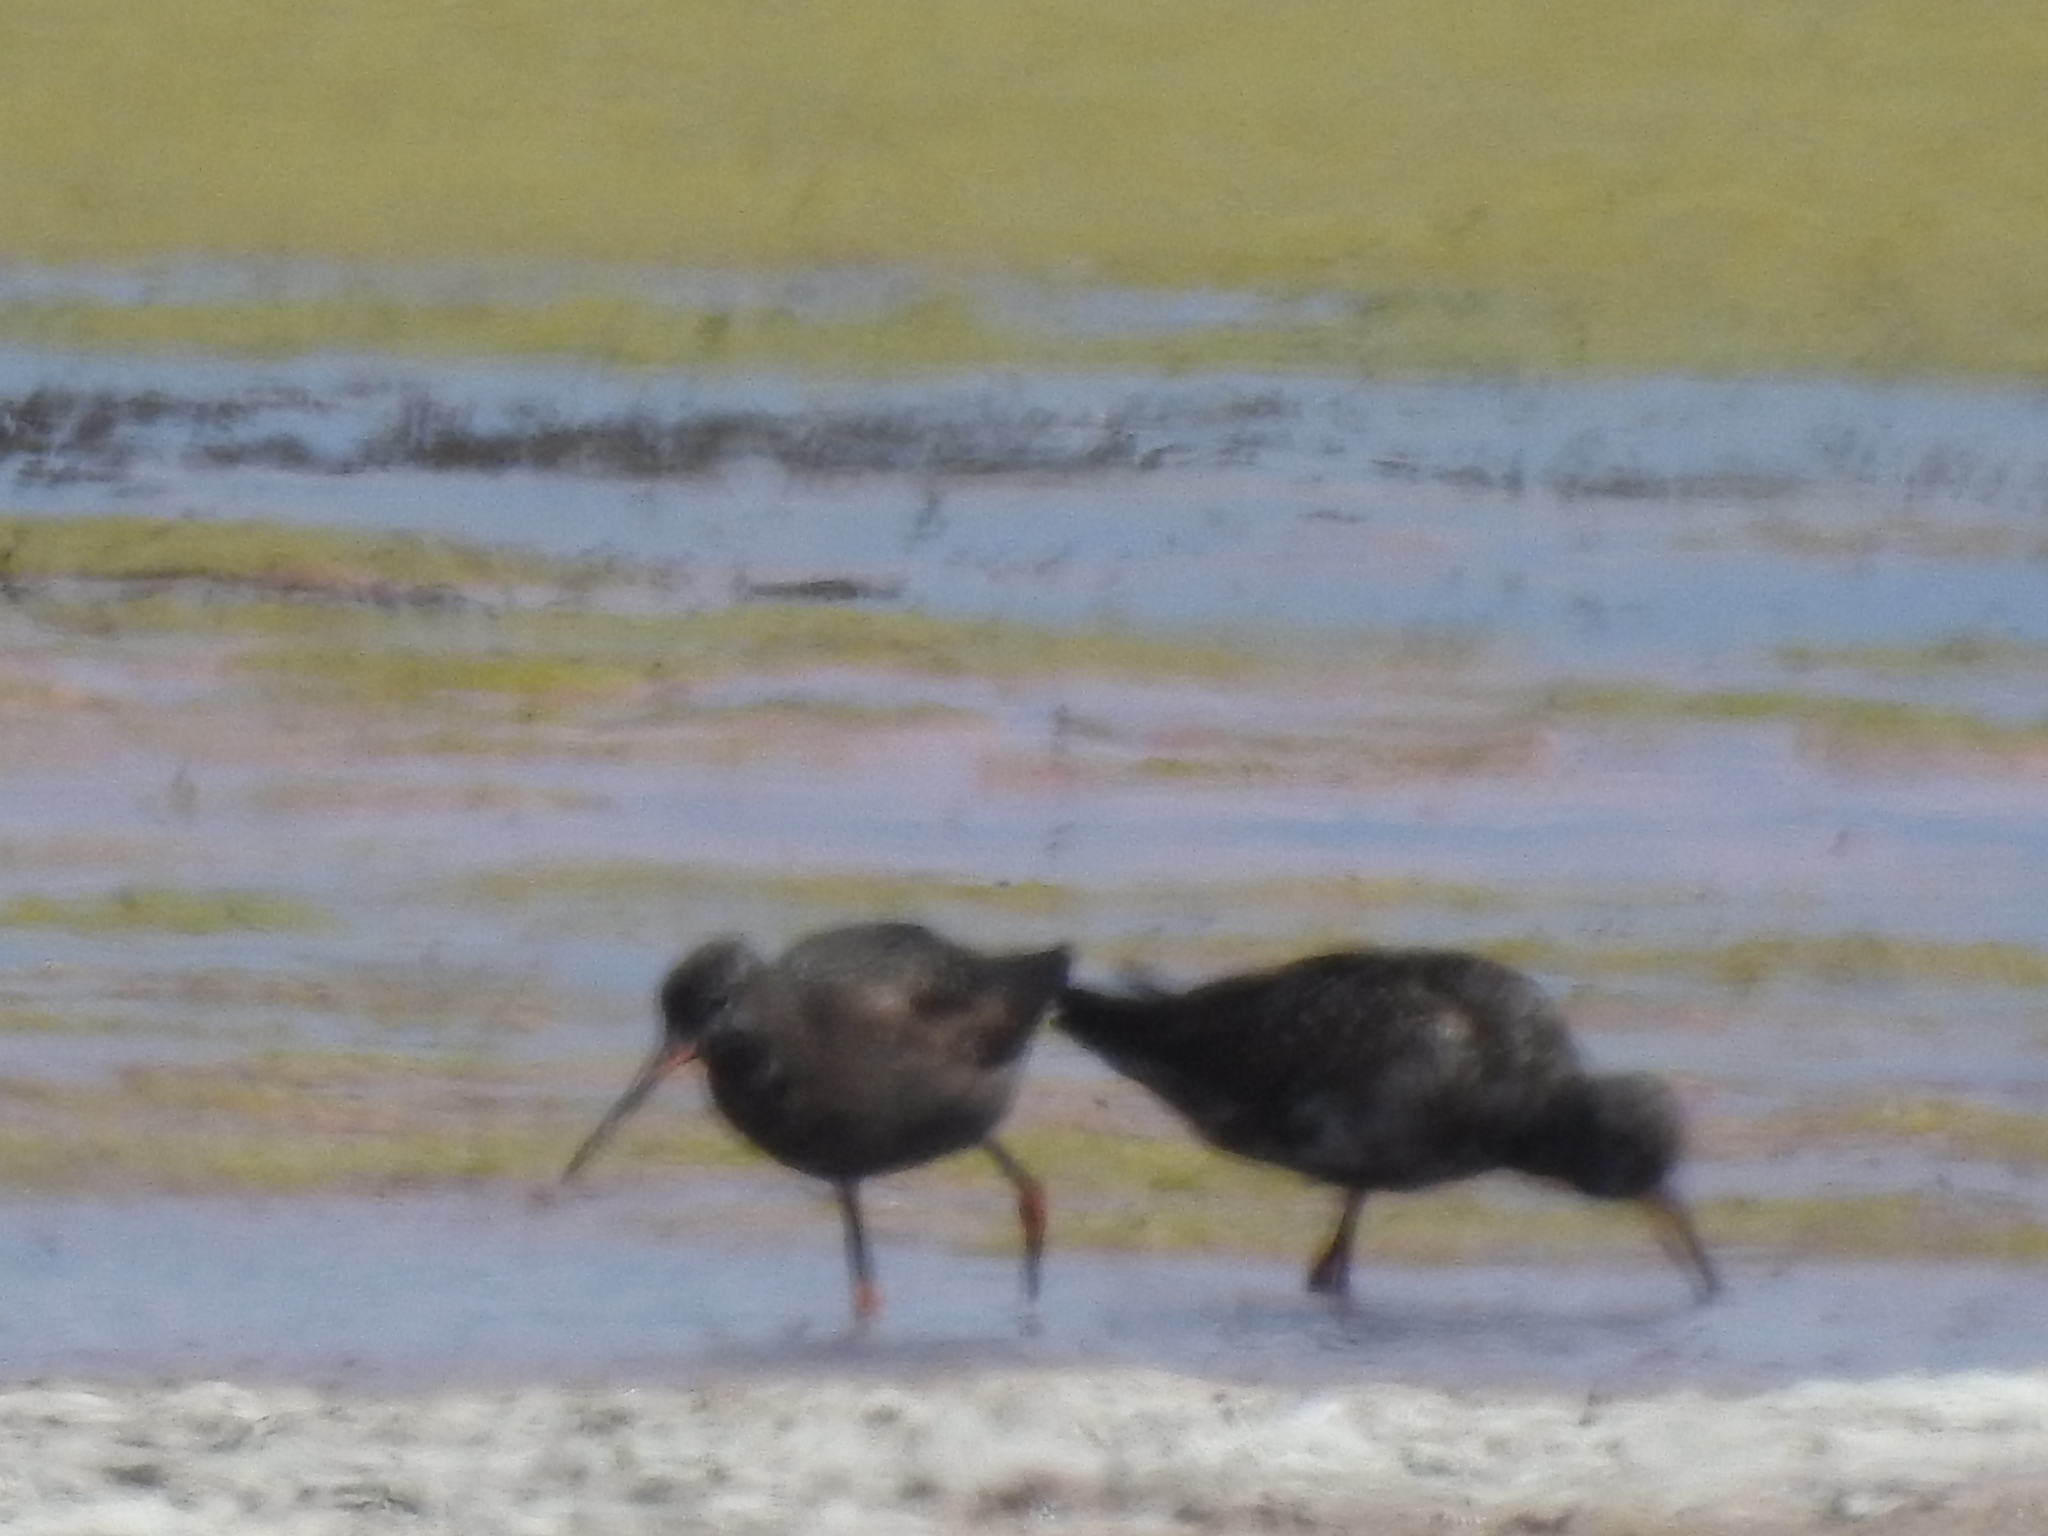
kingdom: Animalia
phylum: Chordata
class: Aves
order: Charadriiformes
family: Scolopacidae
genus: Tringa
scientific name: Tringa erythropus
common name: Spotted redshank
